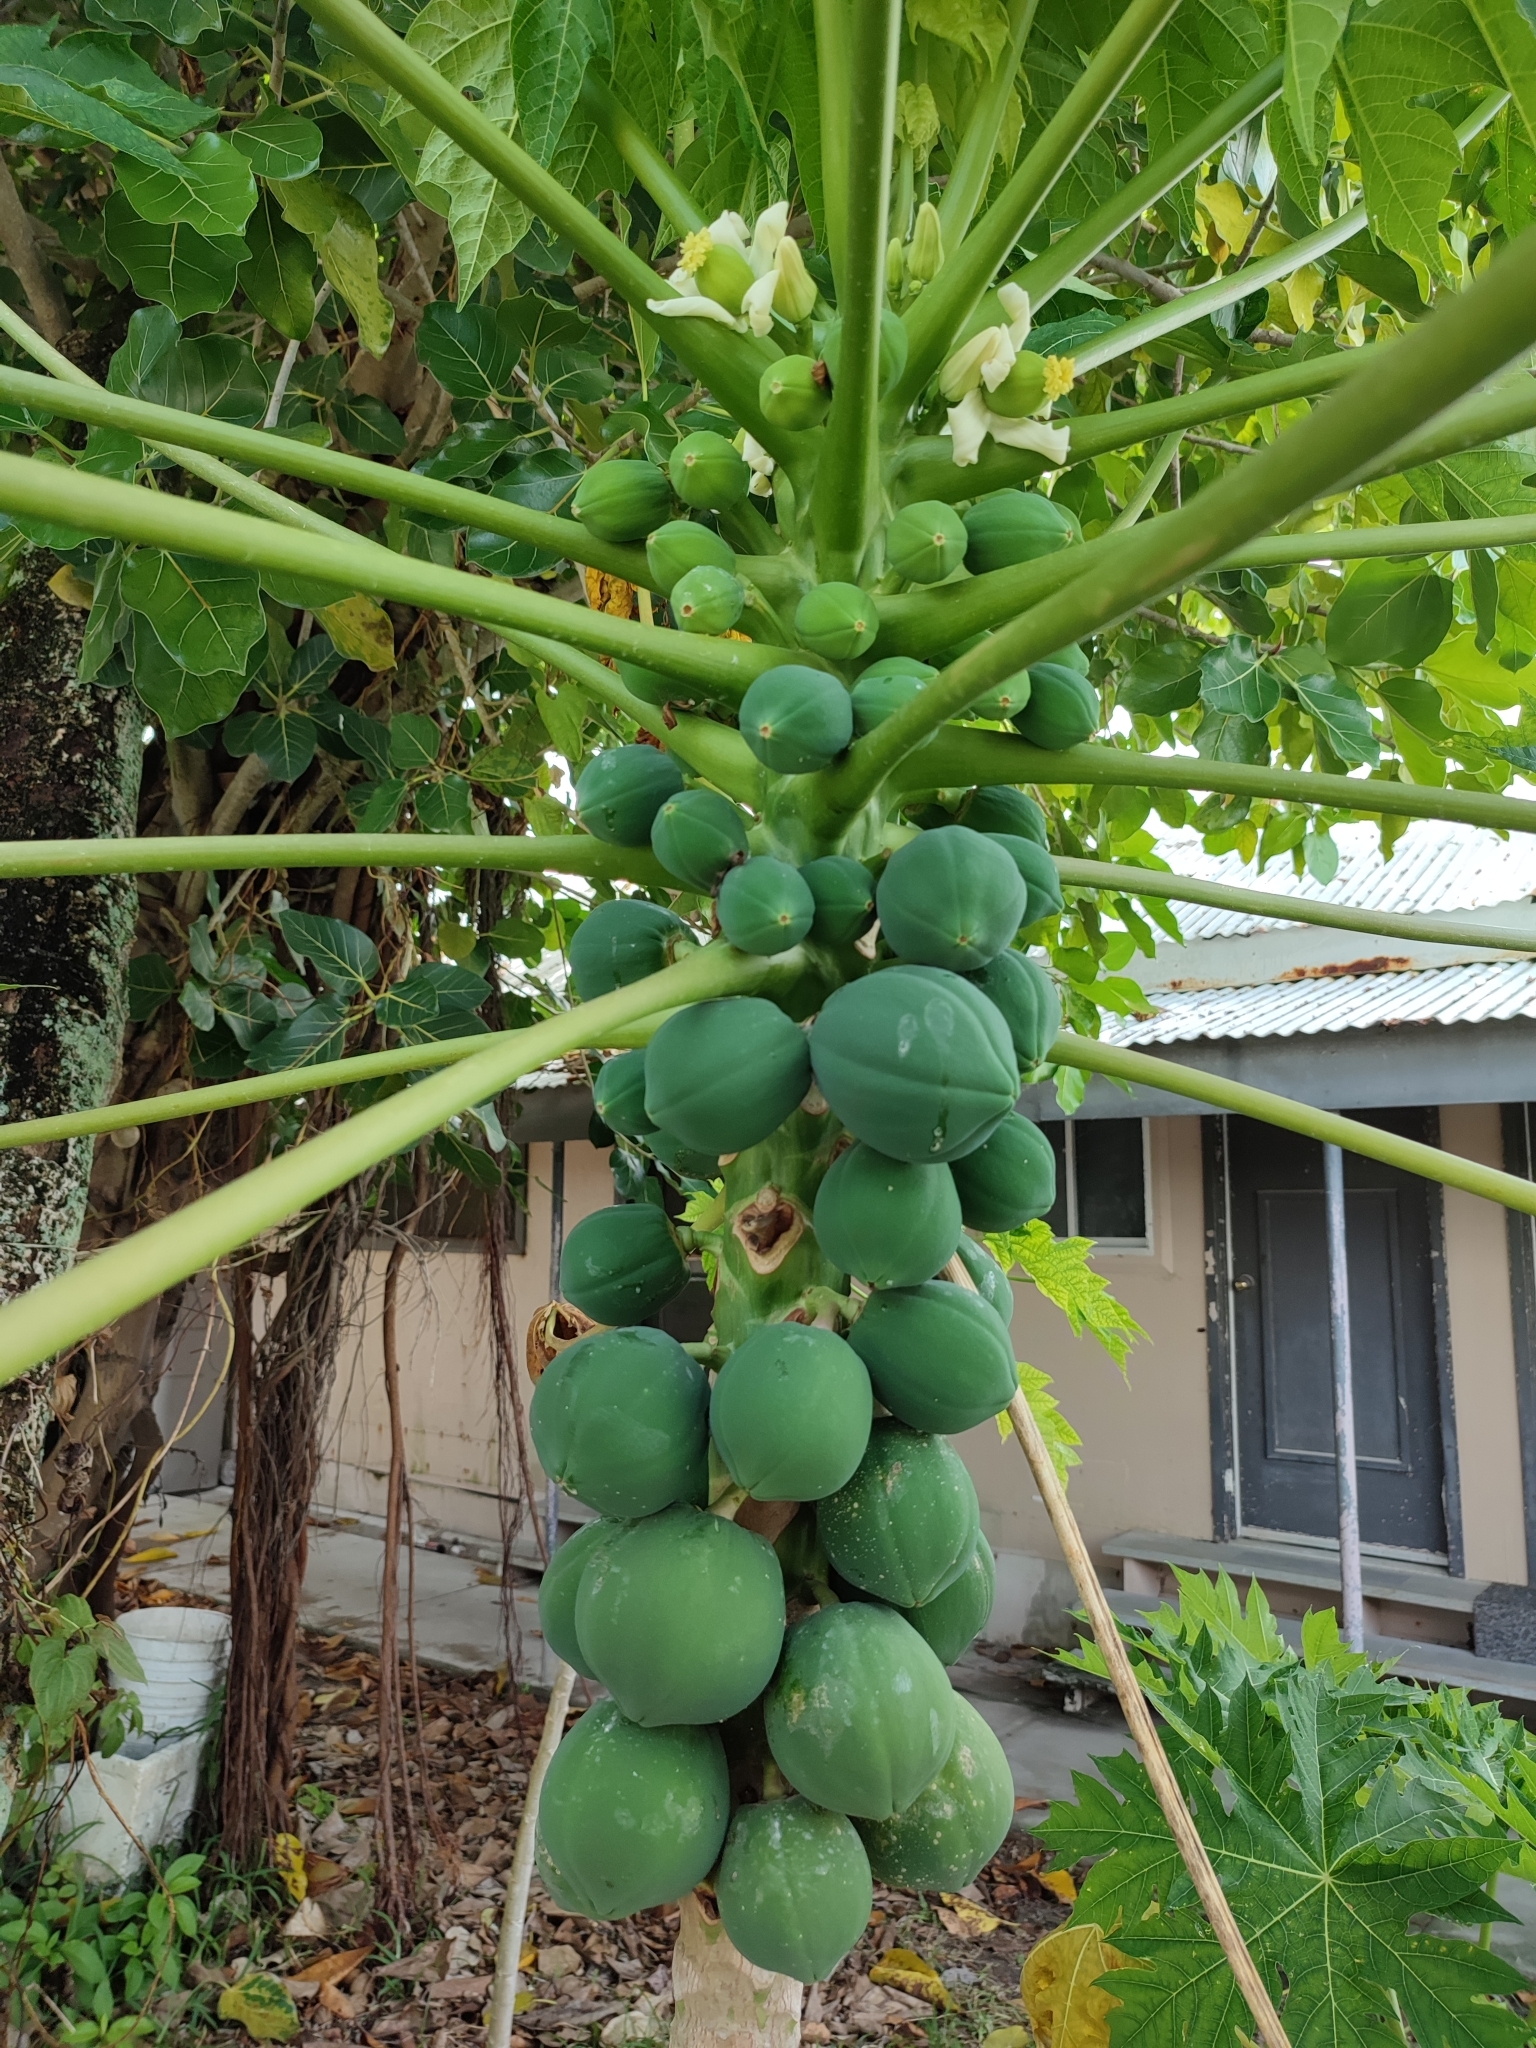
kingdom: Plantae
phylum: Tracheophyta
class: Magnoliopsida
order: Brassicales
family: Caricaceae
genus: Carica
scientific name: Carica papaya
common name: Papaya
